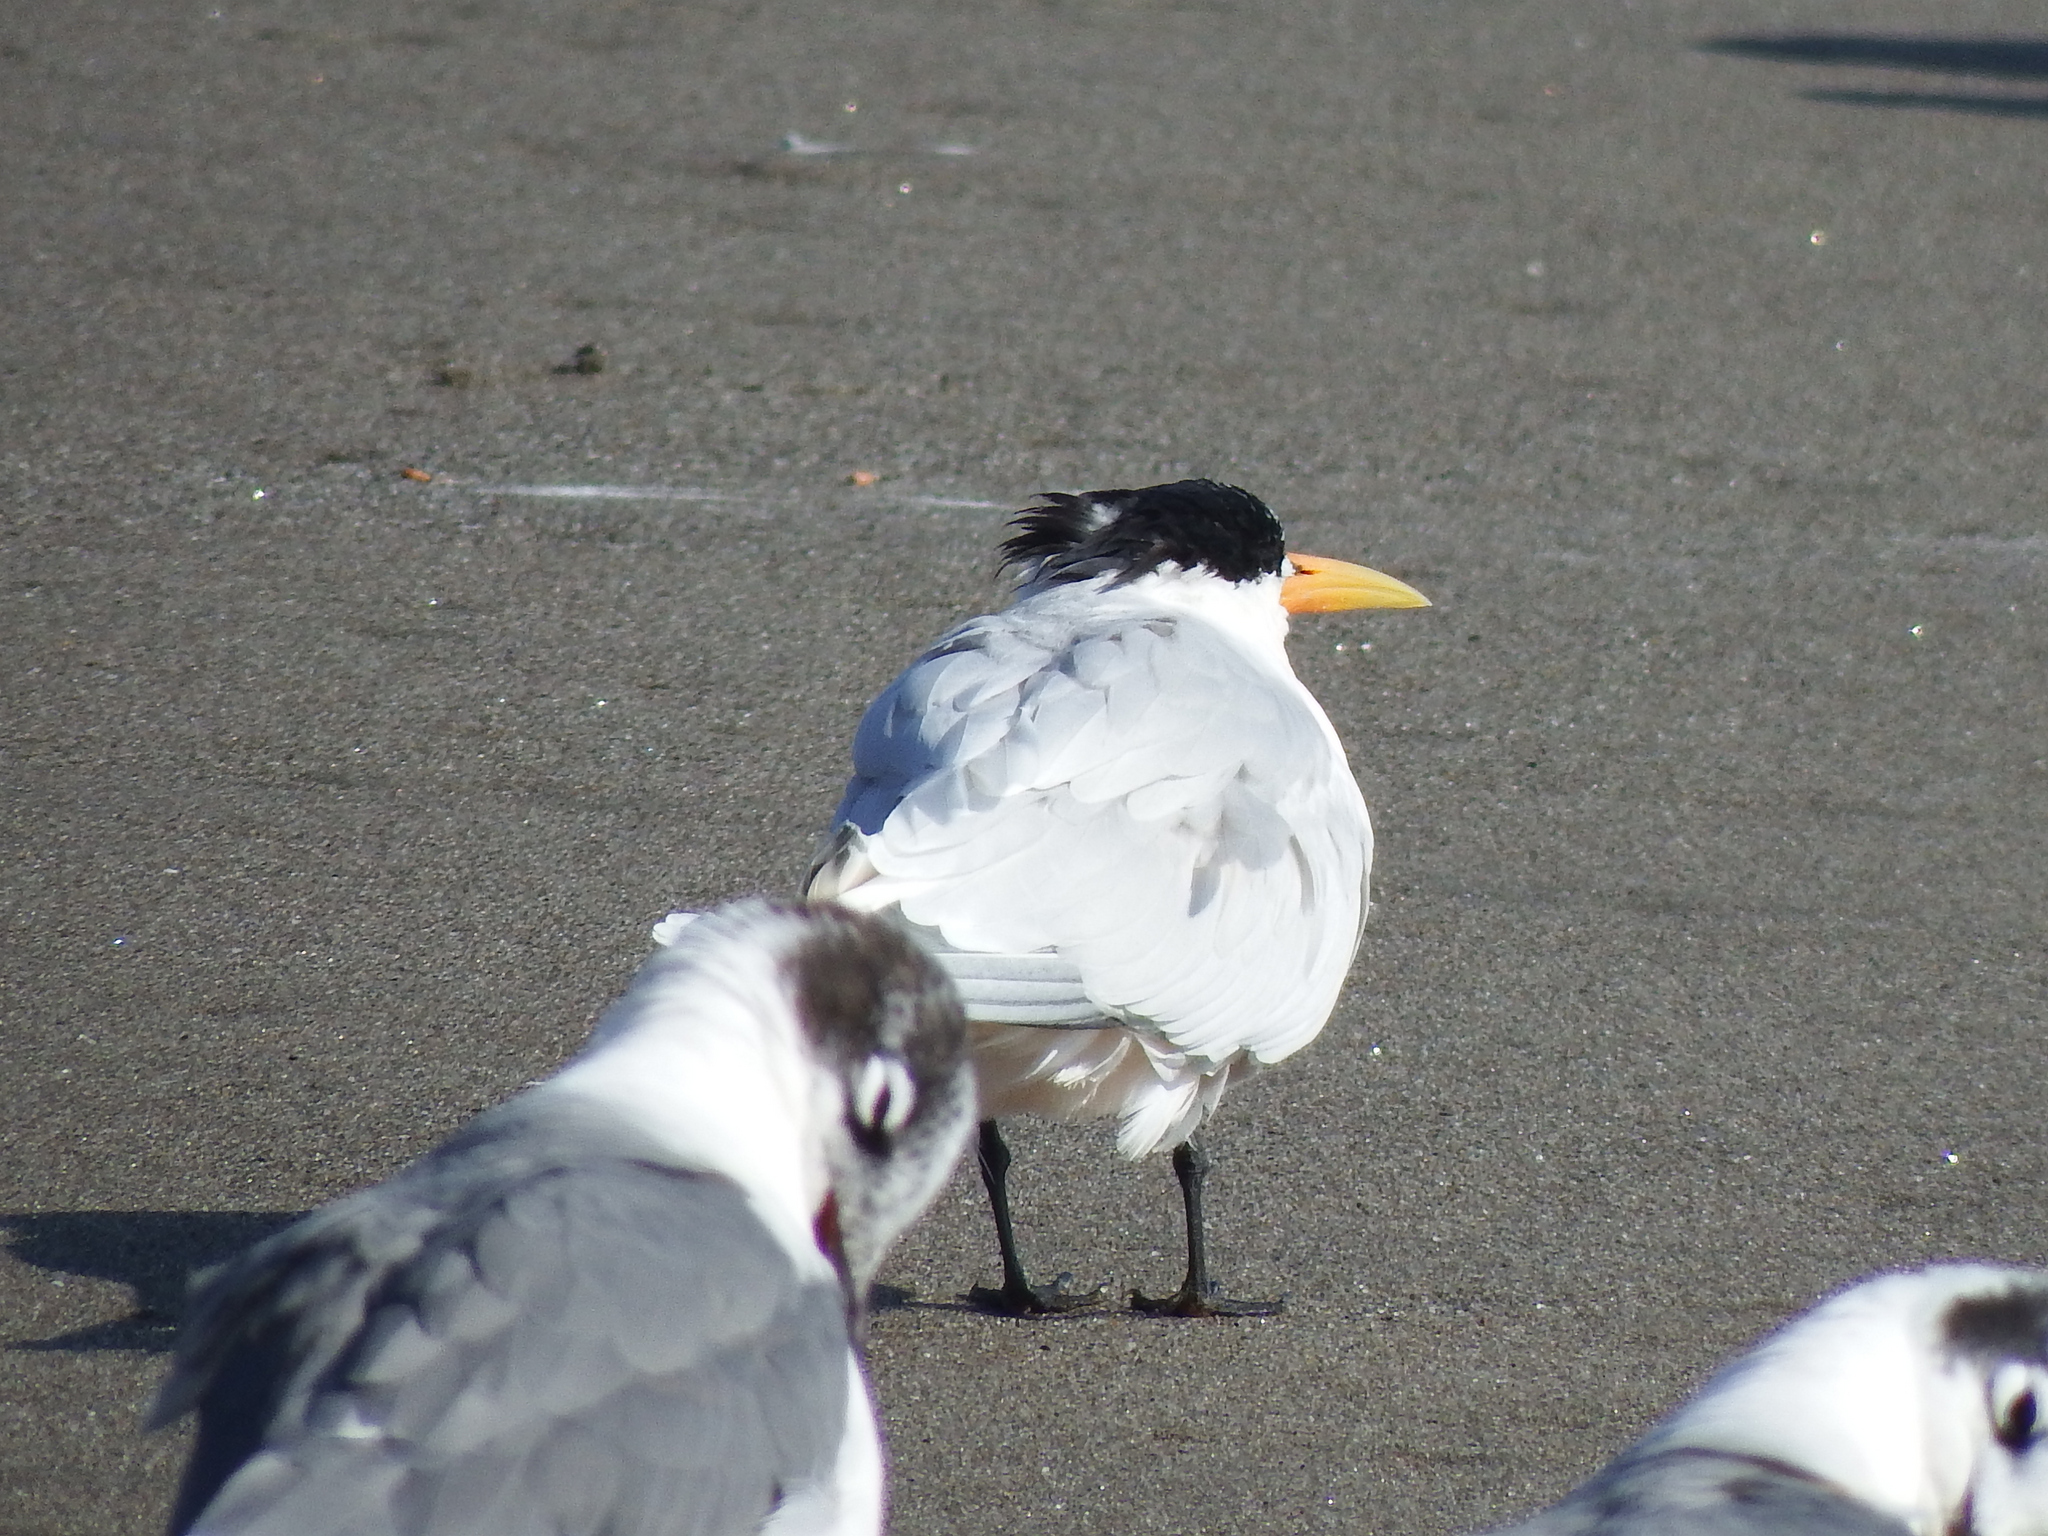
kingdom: Animalia
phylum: Chordata
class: Aves
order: Charadriiformes
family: Laridae
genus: Thalasseus
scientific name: Thalasseus elegans
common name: Elegant tern
